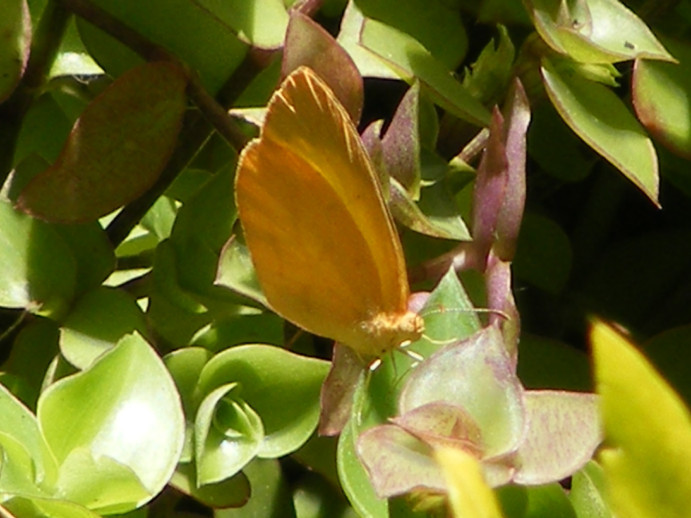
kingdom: Animalia
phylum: Arthropoda
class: Insecta
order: Lepidoptera
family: Pieridae
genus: Eurema
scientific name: Eurema brigitta
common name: Small grass yellow
